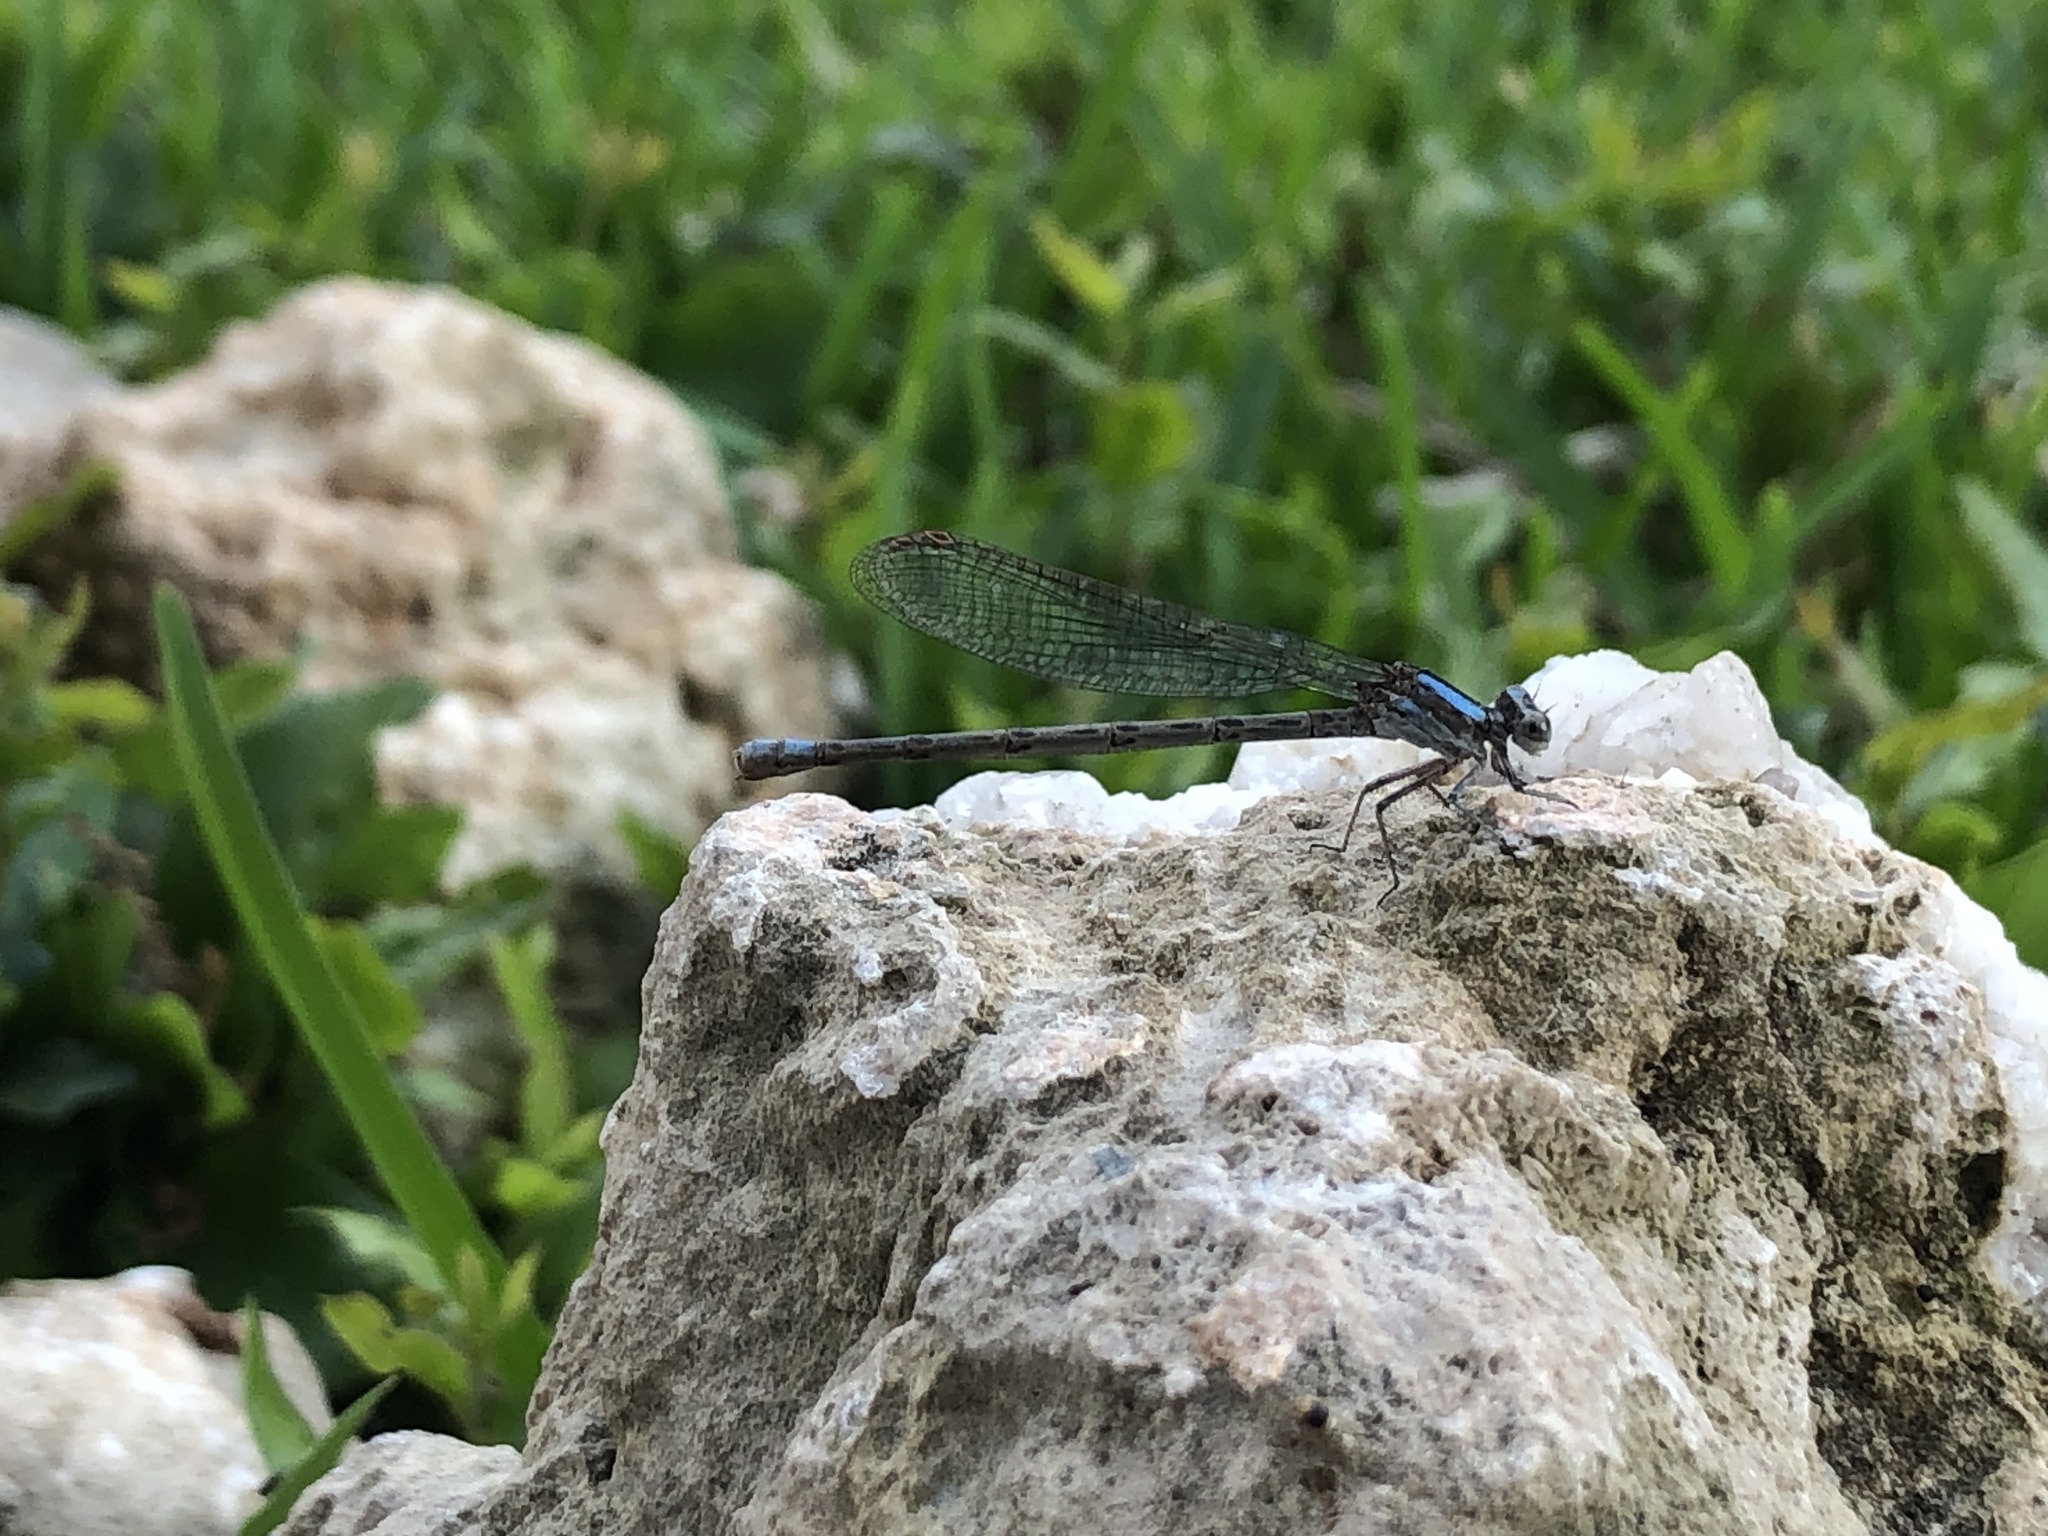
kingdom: Animalia
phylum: Arthropoda
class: Insecta
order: Odonata
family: Coenagrionidae
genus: Argia
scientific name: Argia immunda
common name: Kiowa dancer
